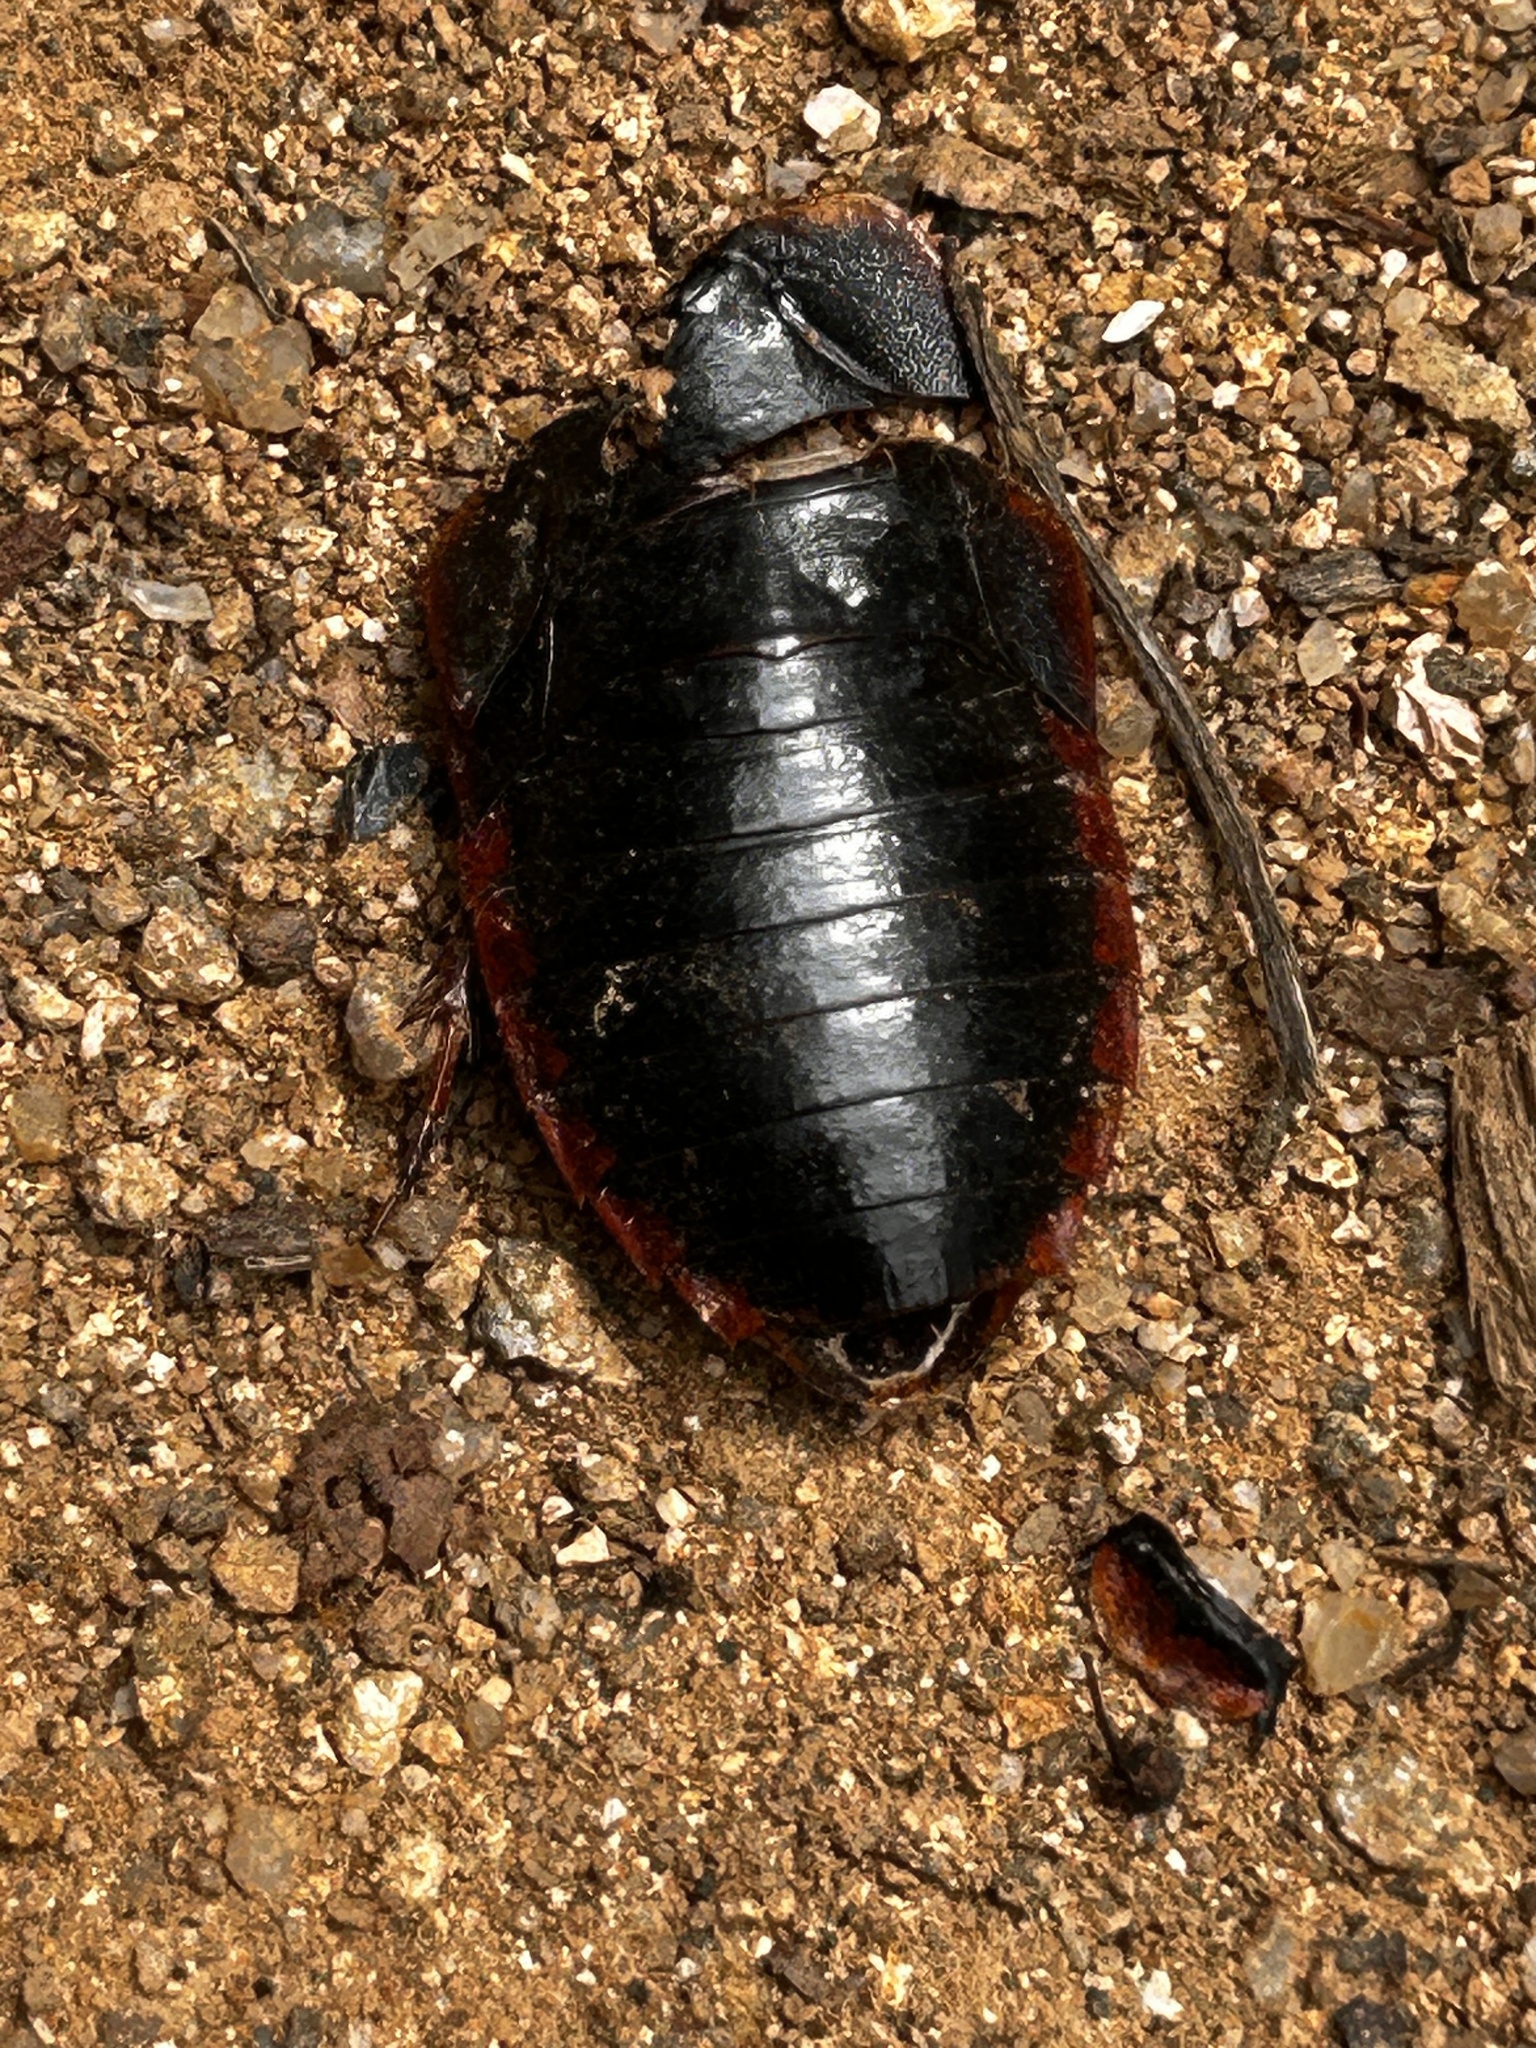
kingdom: Animalia
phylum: Arthropoda
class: Insecta
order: Blattodea
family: Blaberidae
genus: Opisthoplatia
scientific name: Opisthoplatia orientalis
